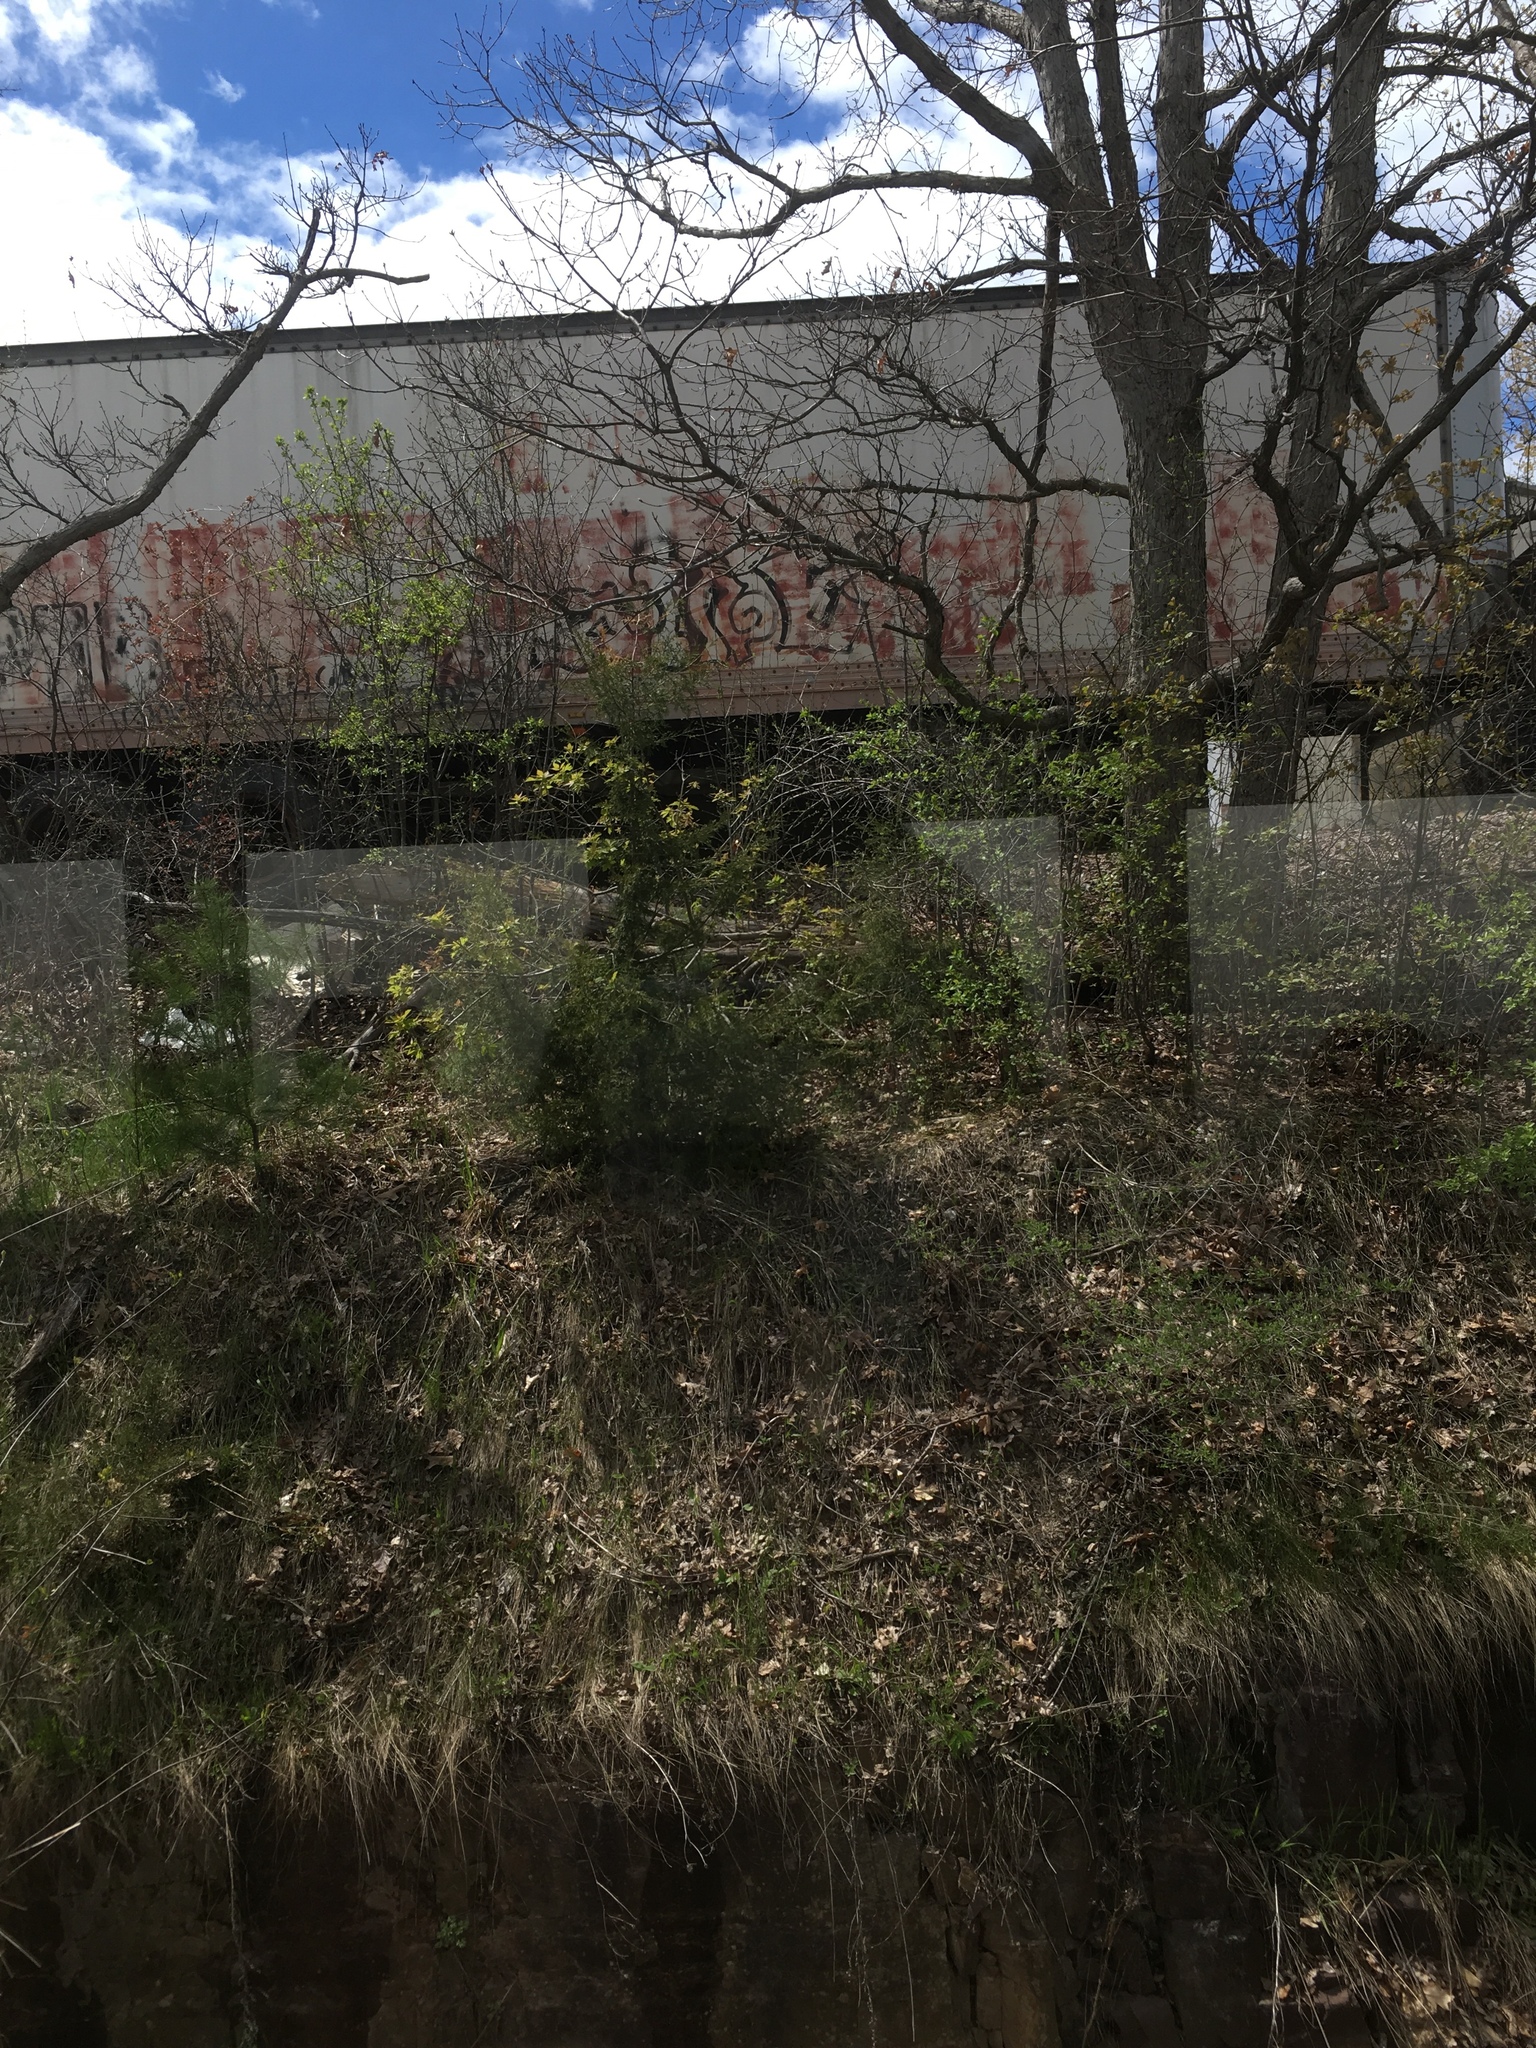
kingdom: Plantae
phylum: Tracheophyta
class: Pinopsida
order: Pinales
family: Cupressaceae
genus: Juniperus
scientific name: Juniperus virginiana
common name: Red juniper
